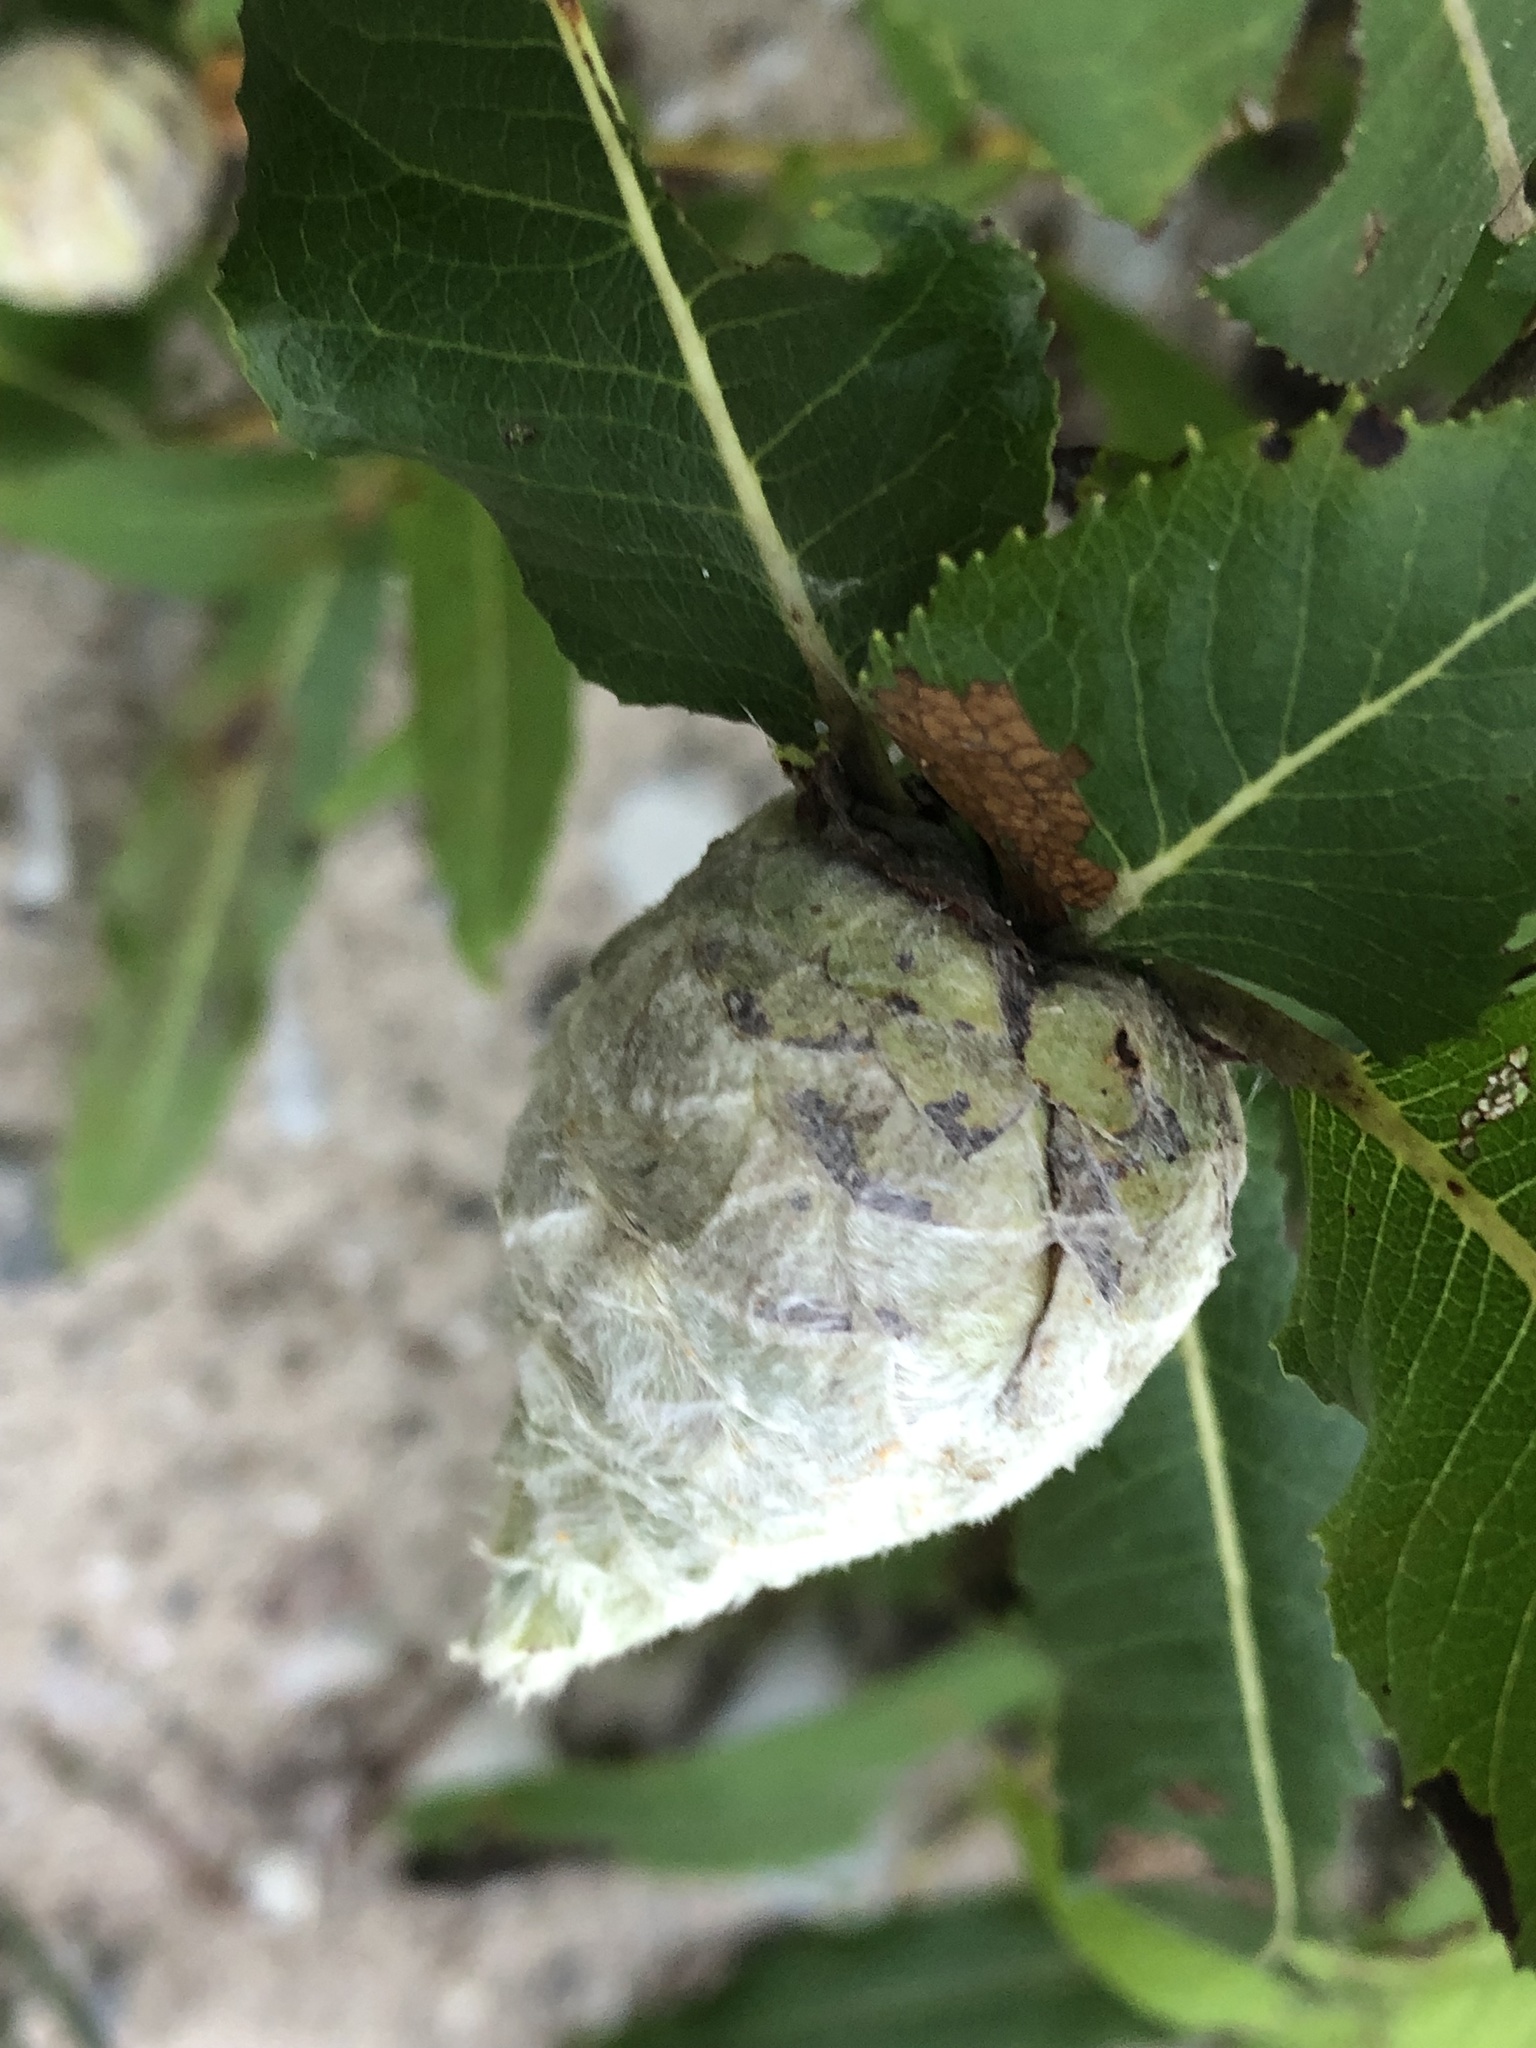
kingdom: Animalia
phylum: Arthropoda
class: Insecta
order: Diptera
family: Cecidomyiidae
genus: Rabdophaga
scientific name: Rabdophaga strobiloides
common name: Willow pinecone gall midge
